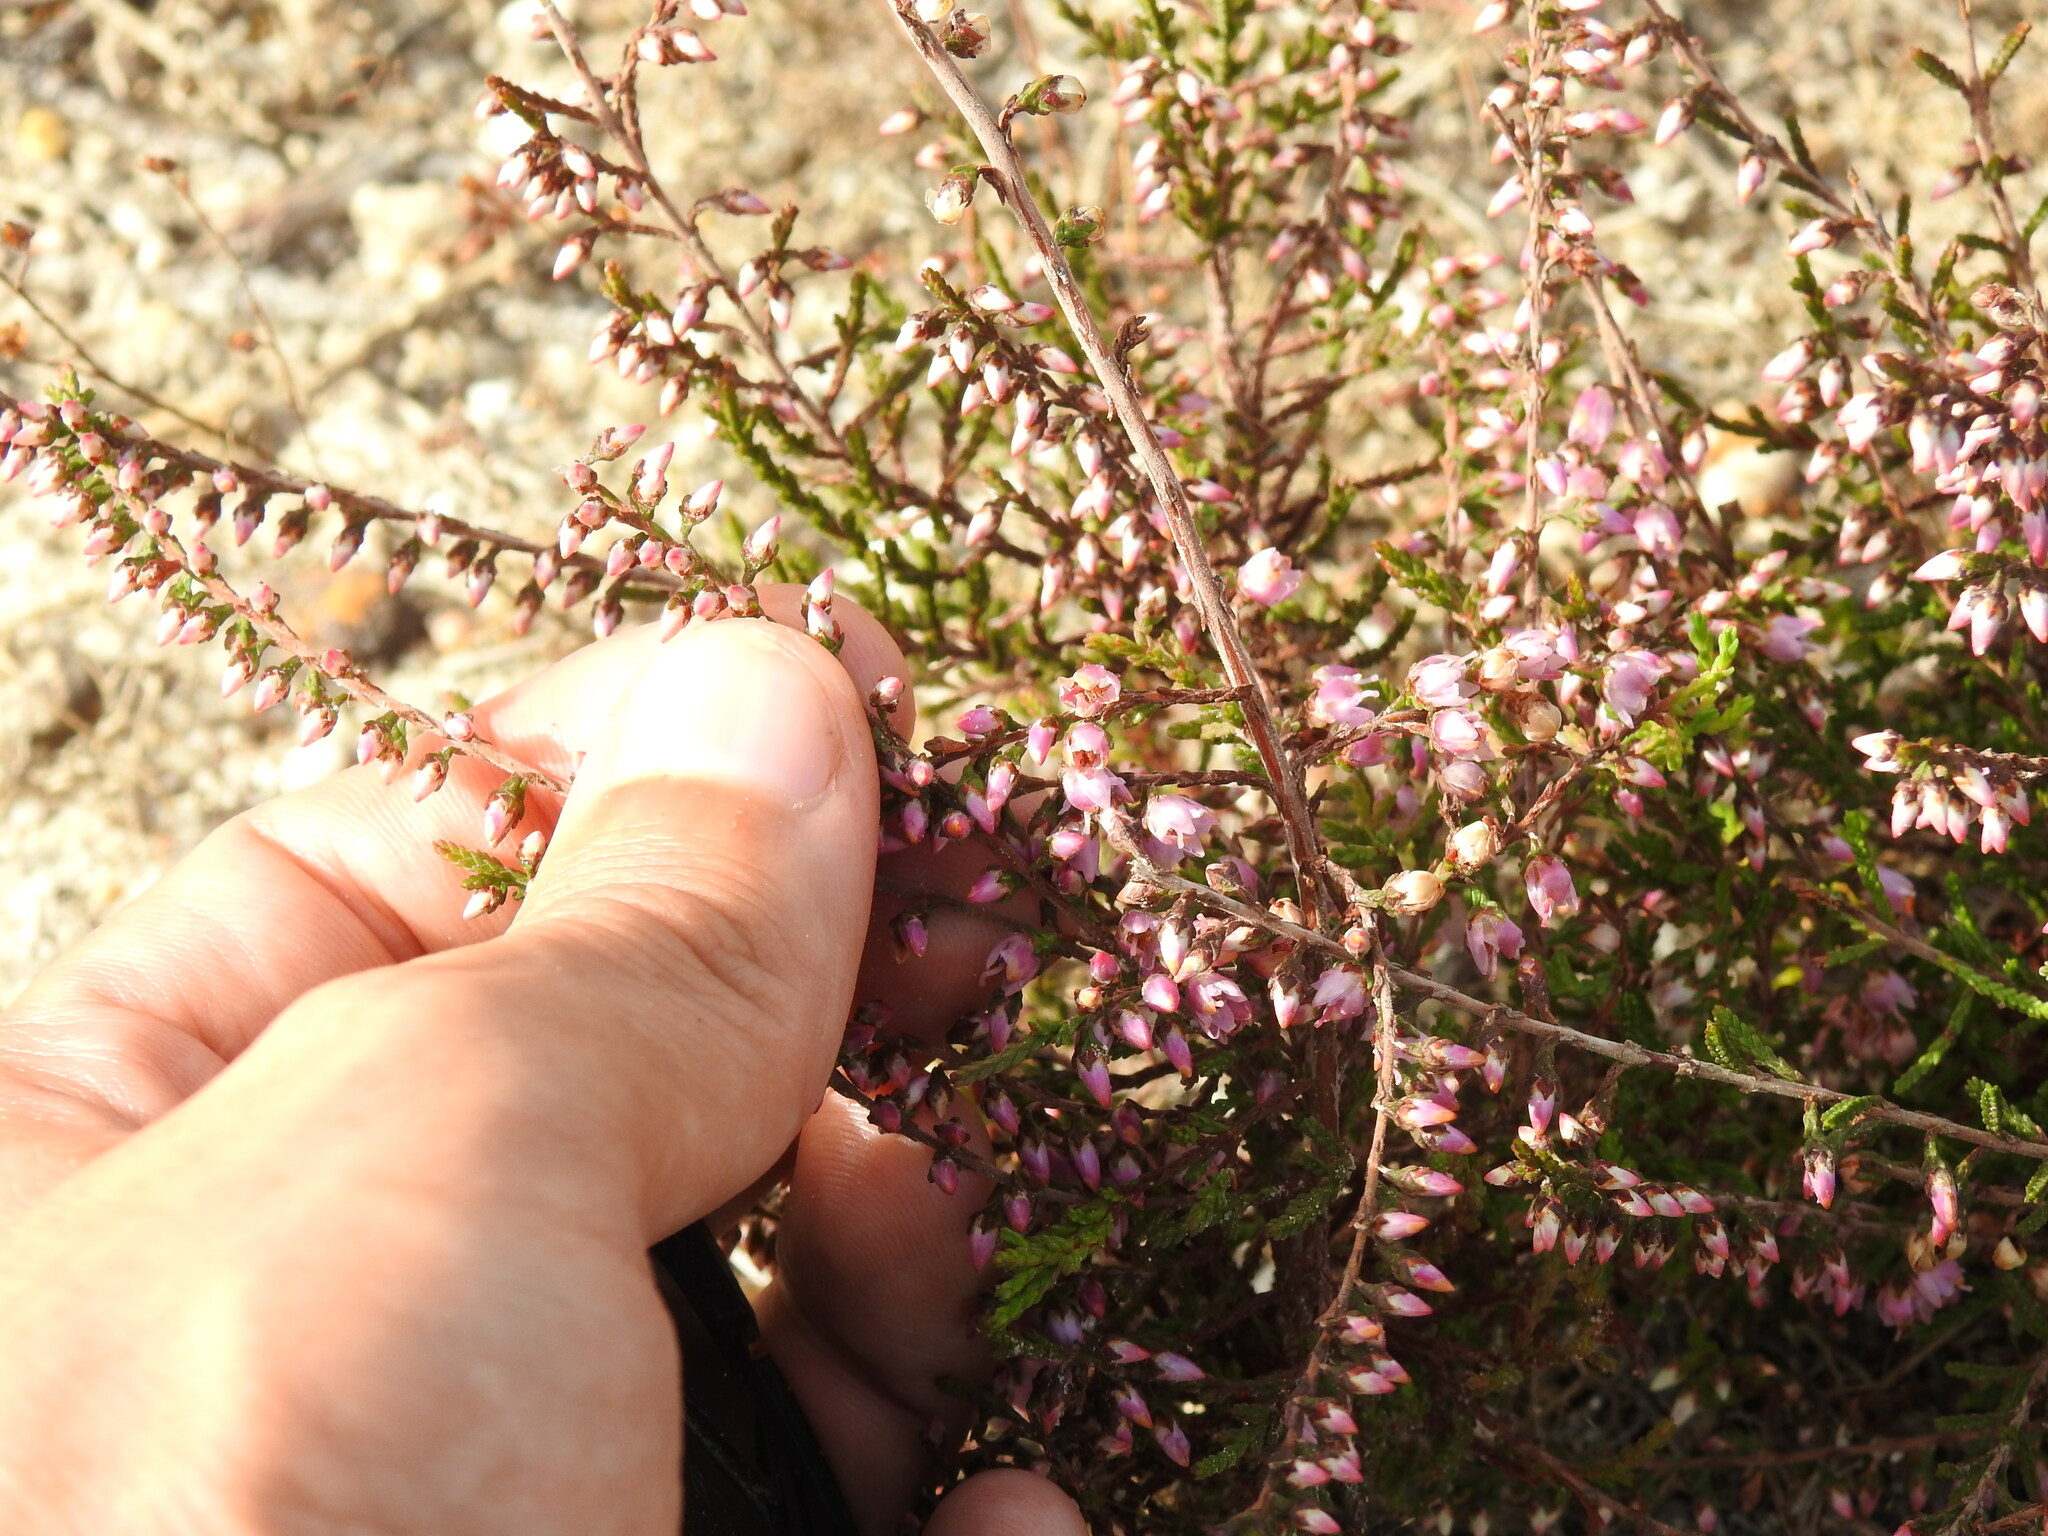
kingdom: Plantae
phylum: Tracheophyta
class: Magnoliopsida
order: Ericales
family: Ericaceae
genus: Calluna
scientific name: Calluna vulgaris
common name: Heather
